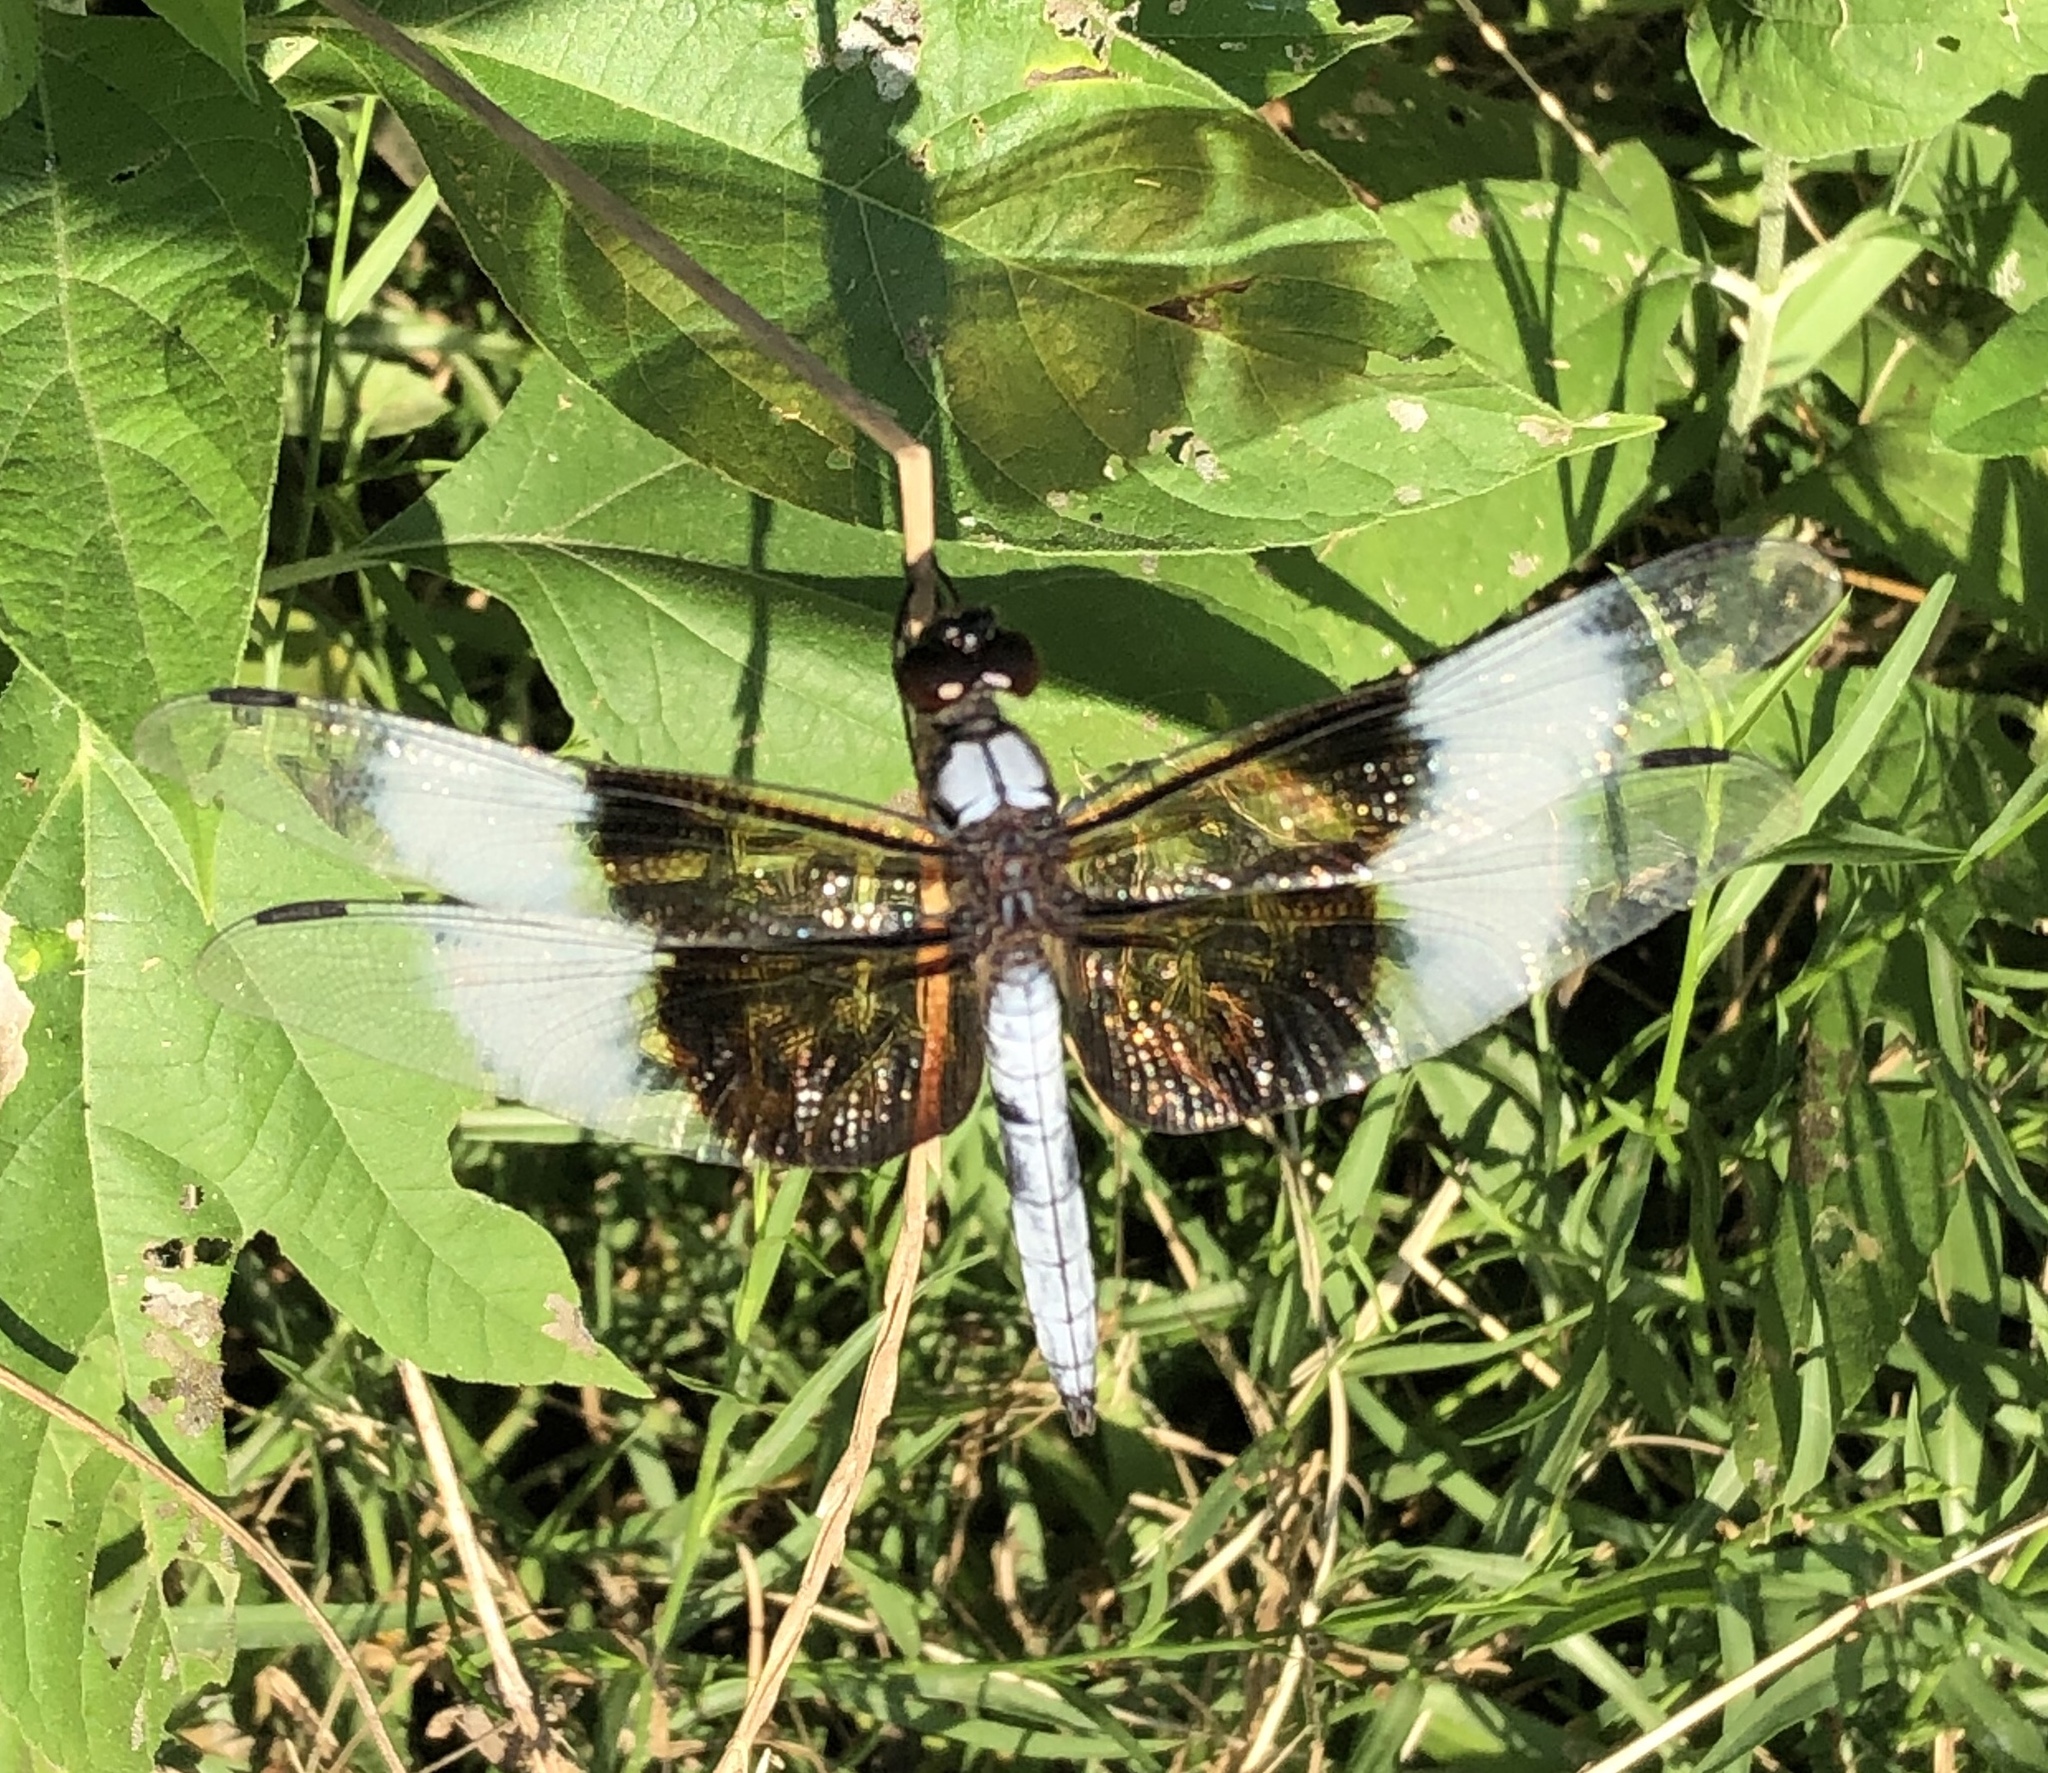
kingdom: Animalia
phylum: Arthropoda
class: Insecta
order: Odonata
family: Libellulidae
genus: Libellula
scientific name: Libellula luctuosa
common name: Widow skimmer
